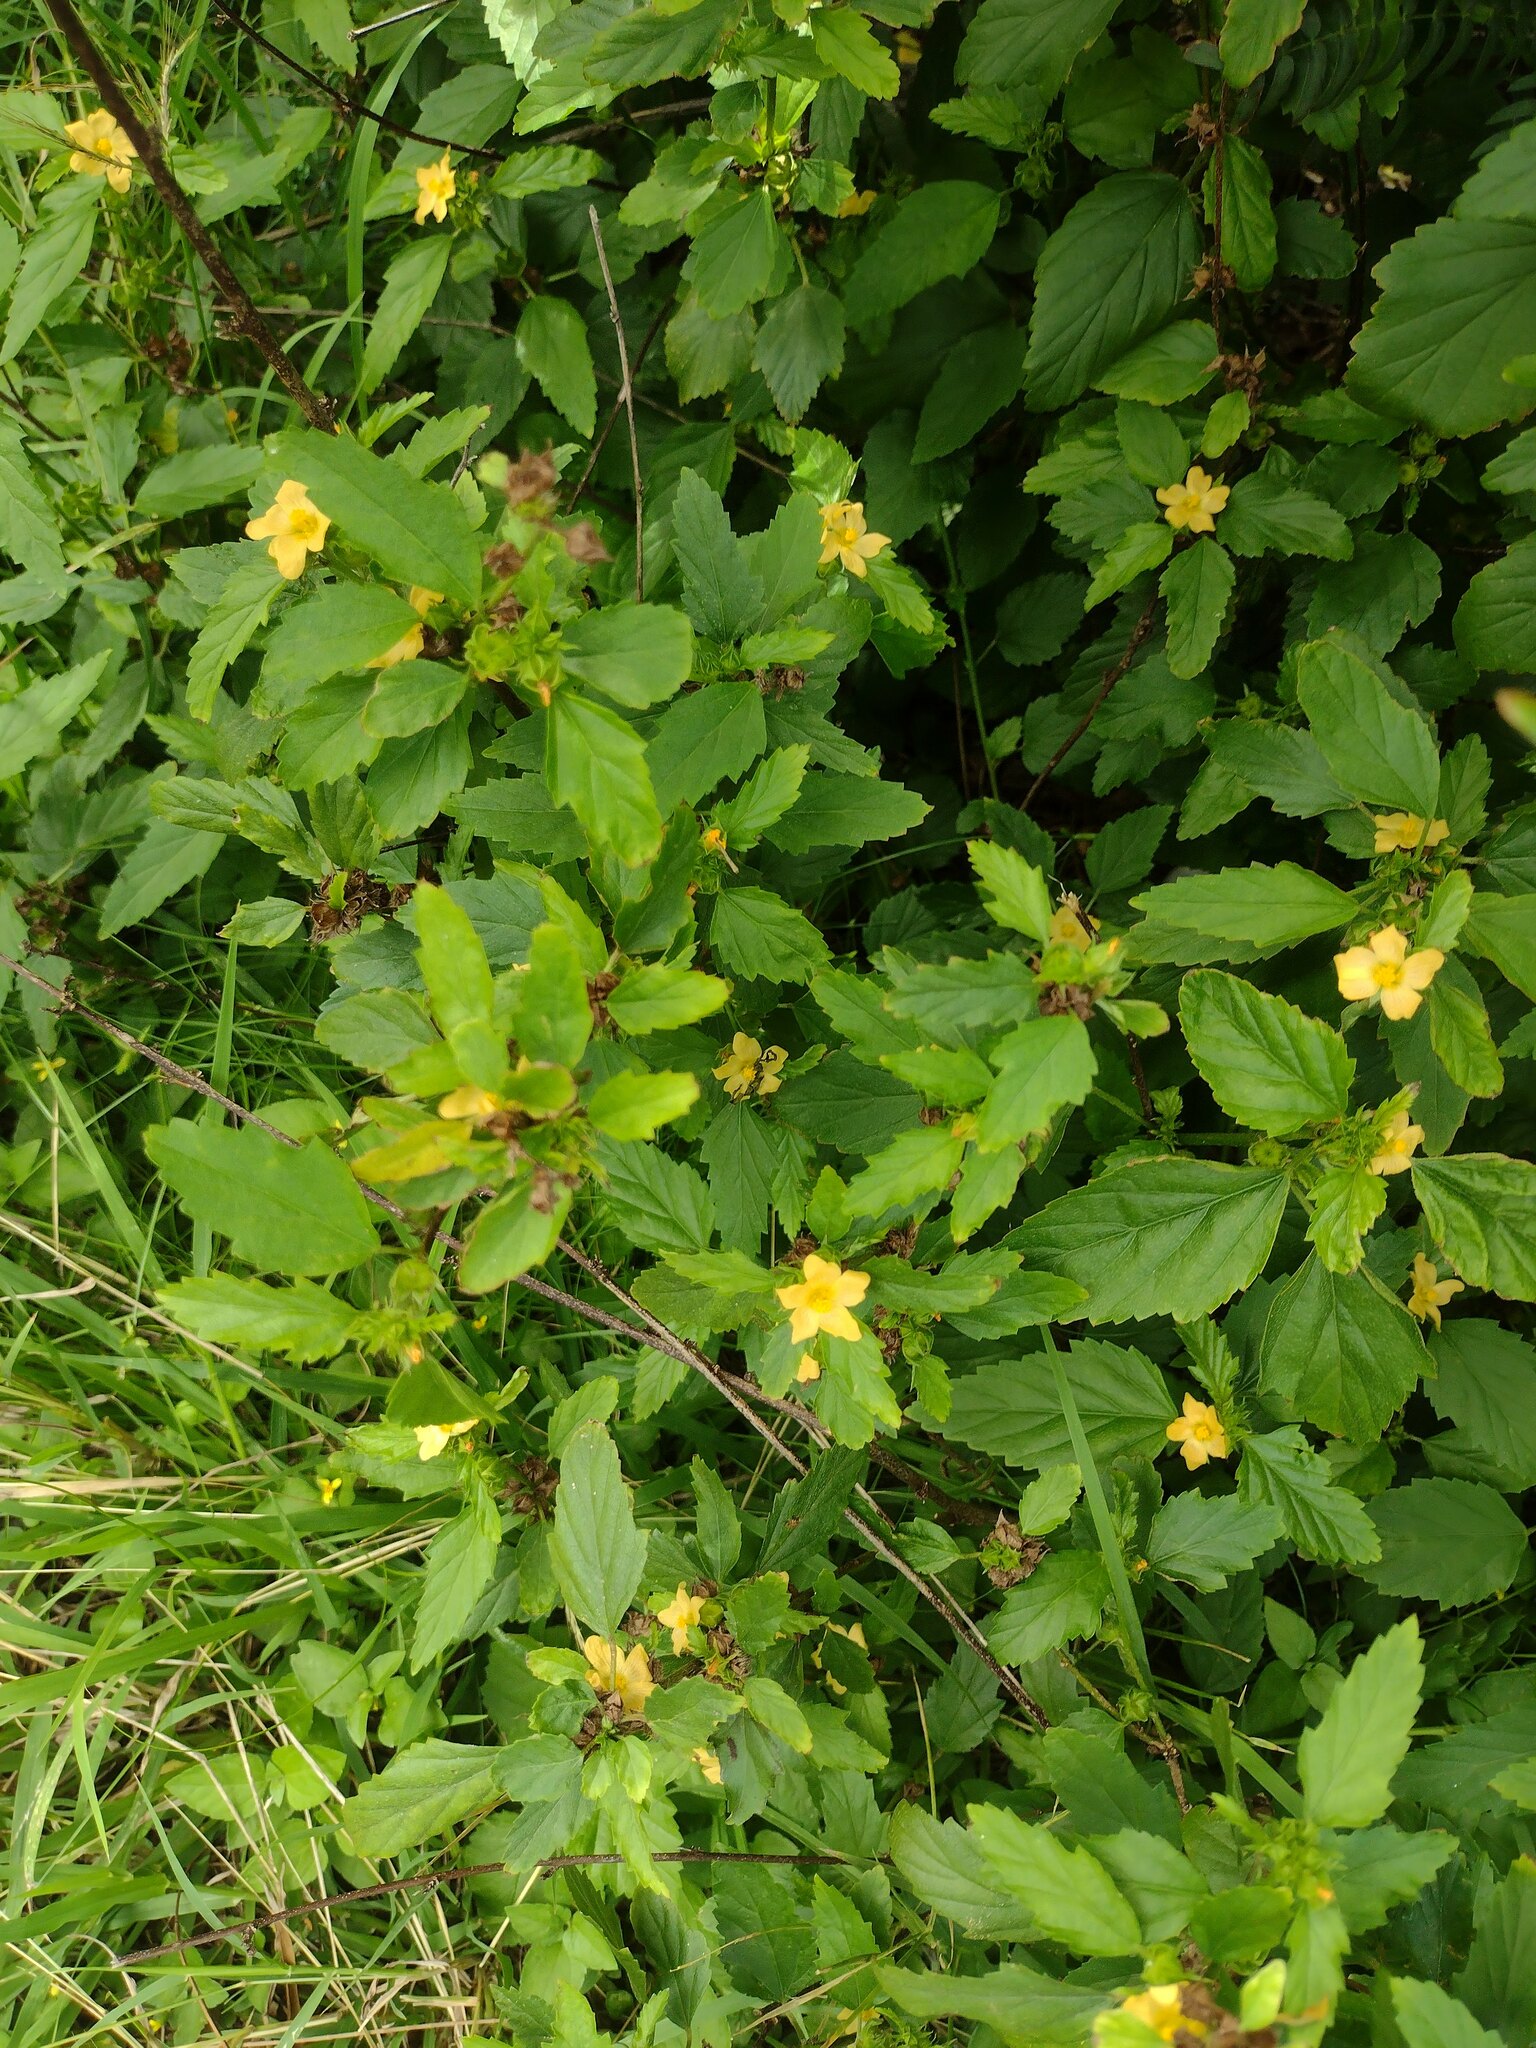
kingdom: Plantae
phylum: Tracheophyta
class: Magnoliopsida
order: Malvales
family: Malvaceae
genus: Malvastrum
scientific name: Malvastrum coromandelianum
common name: Threelobe false mallow
